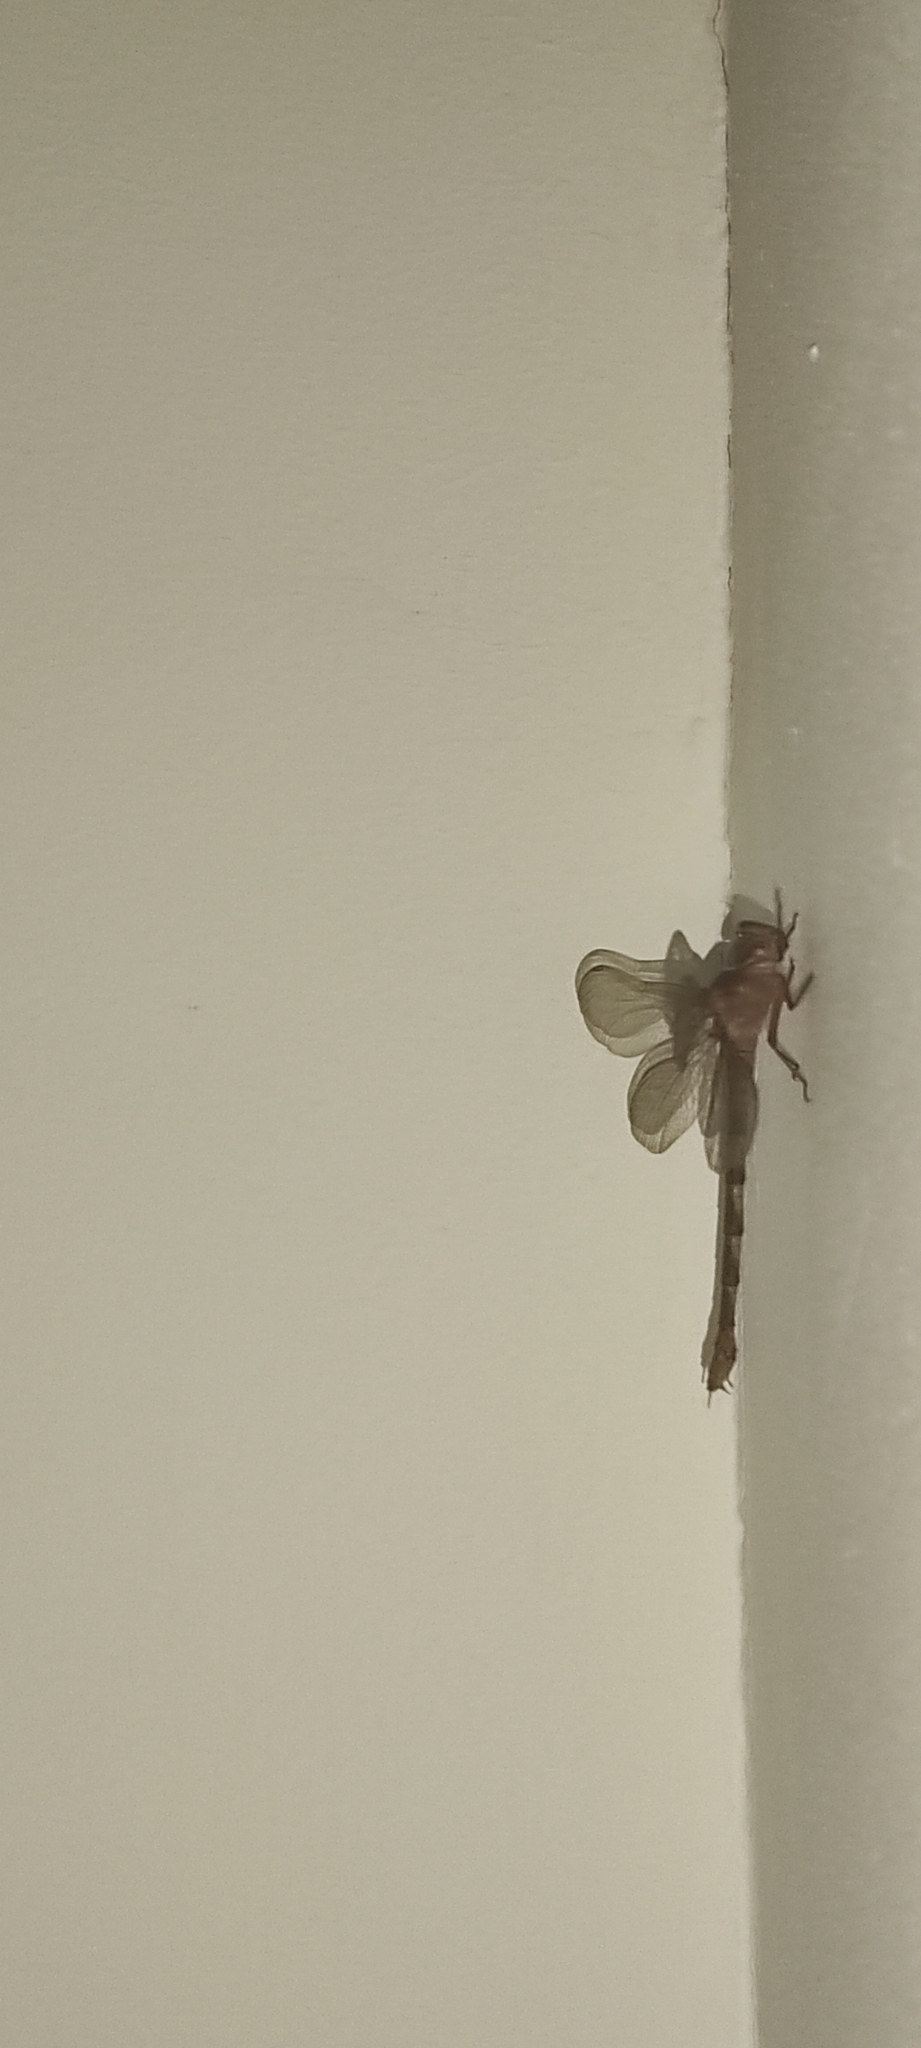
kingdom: Animalia
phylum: Arthropoda
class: Insecta
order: Odonata
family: Aeshnidae
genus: Gynacantha
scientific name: Gynacantha dravida
